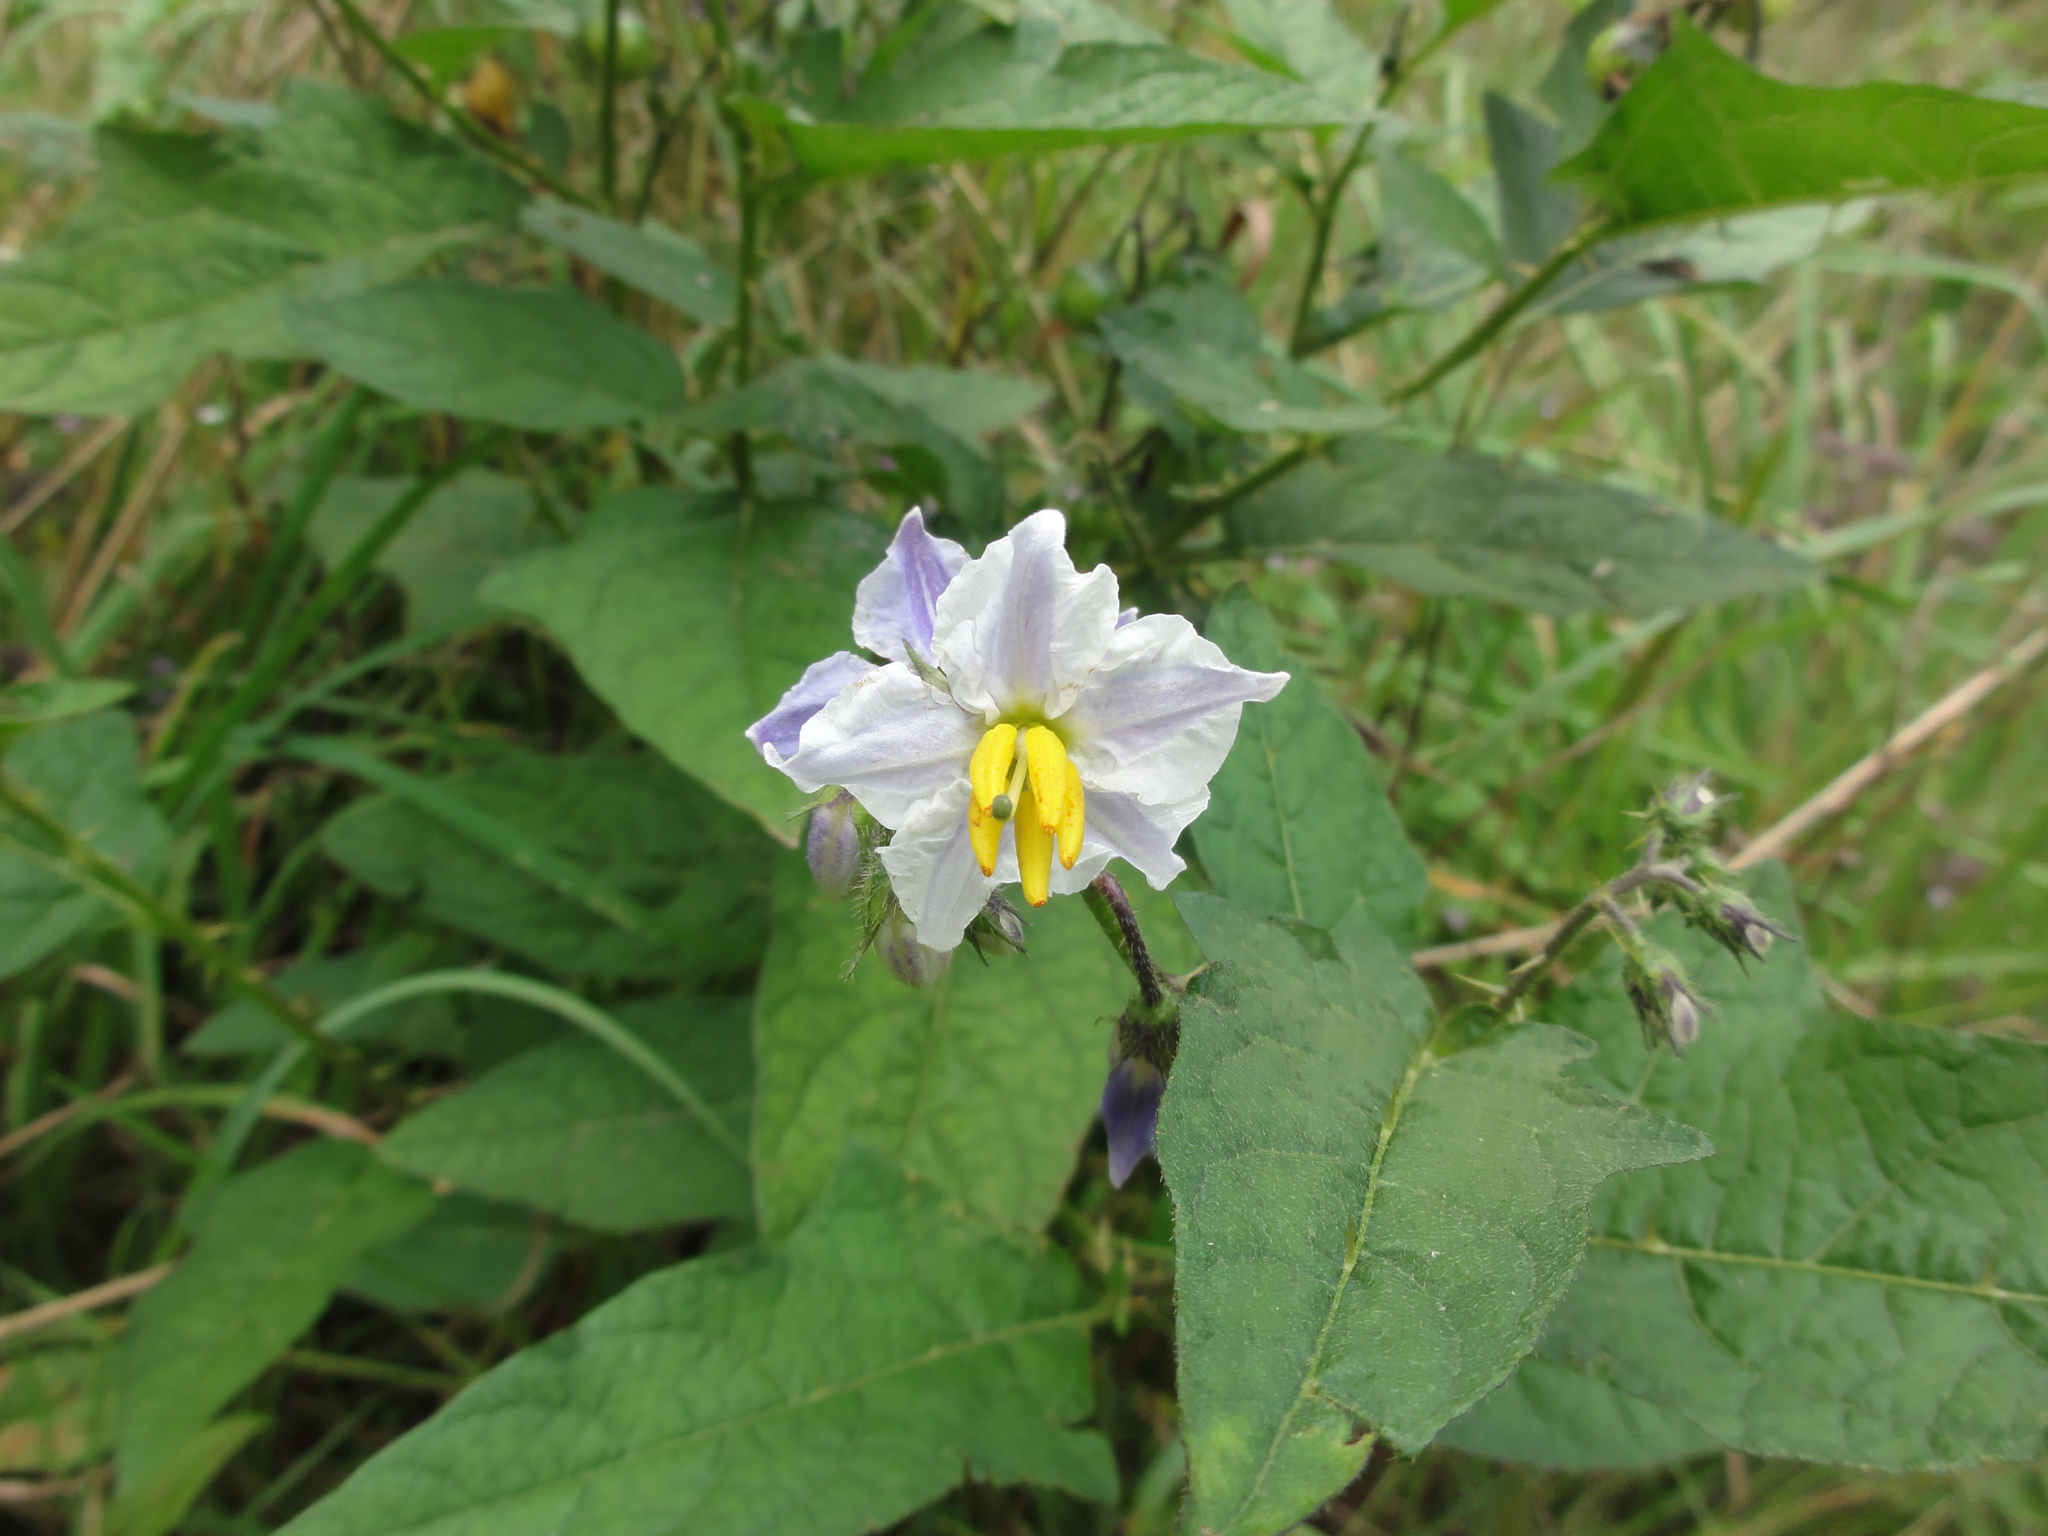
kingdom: Plantae
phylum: Tracheophyta
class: Magnoliopsida
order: Solanales
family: Solanaceae
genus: Solanum
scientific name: Solanum carolinense
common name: Horse-nettle
